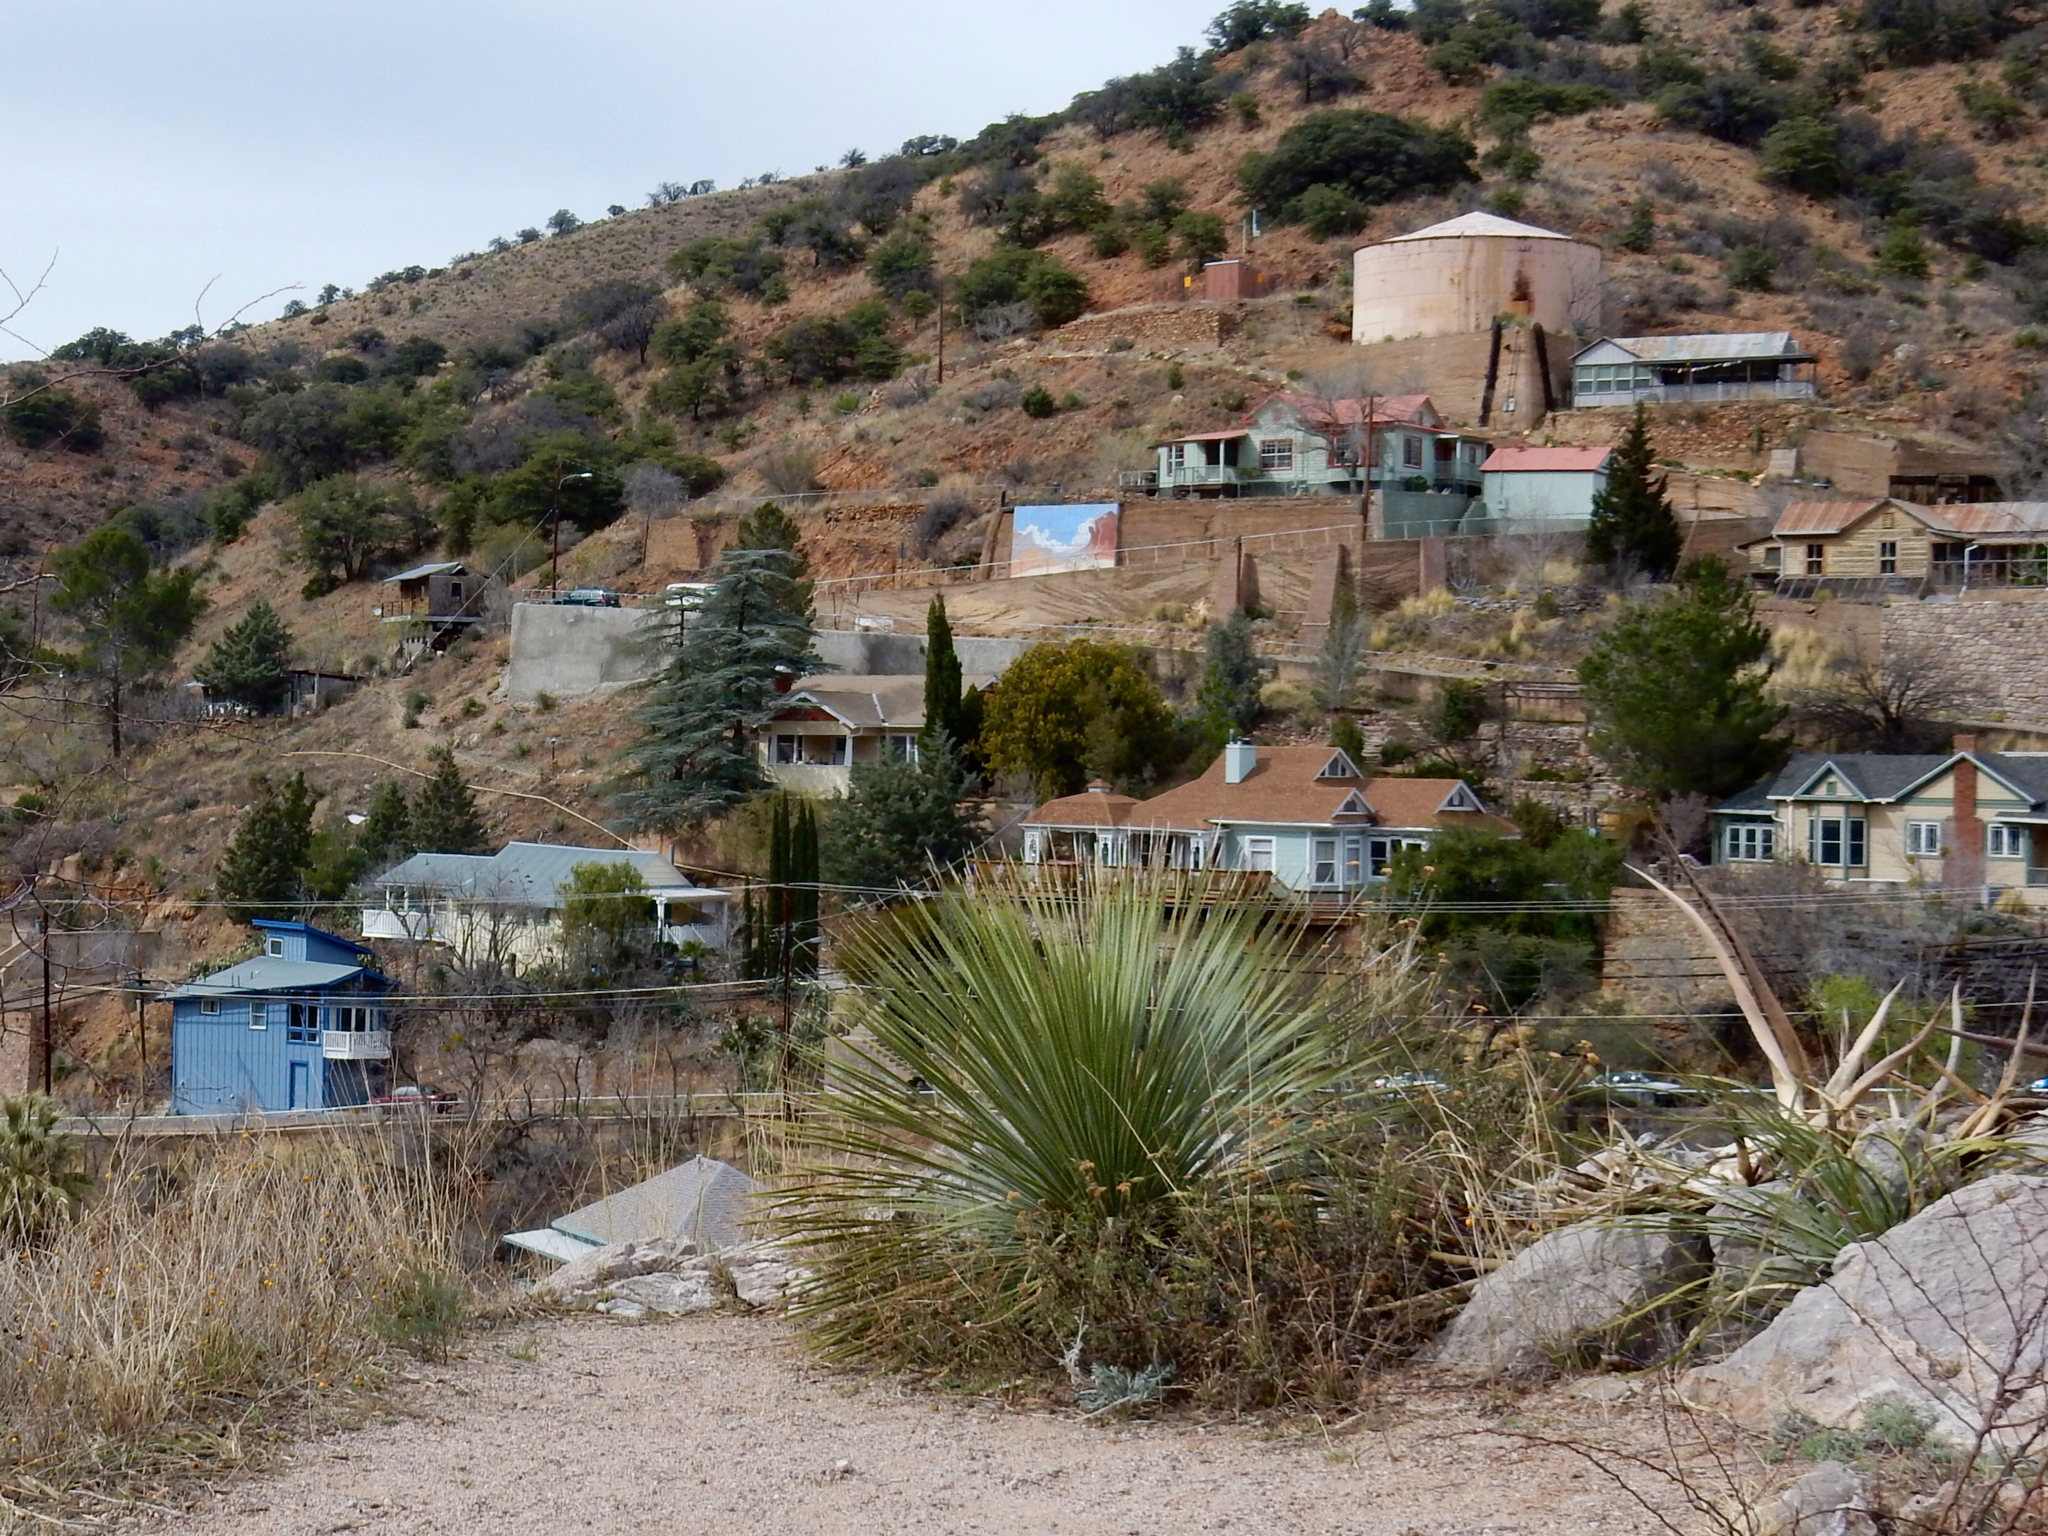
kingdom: Plantae
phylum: Tracheophyta
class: Liliopsida
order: Asparagales
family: Asparagaceae
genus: Dasylirion
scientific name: Dasylirion wheeleri
